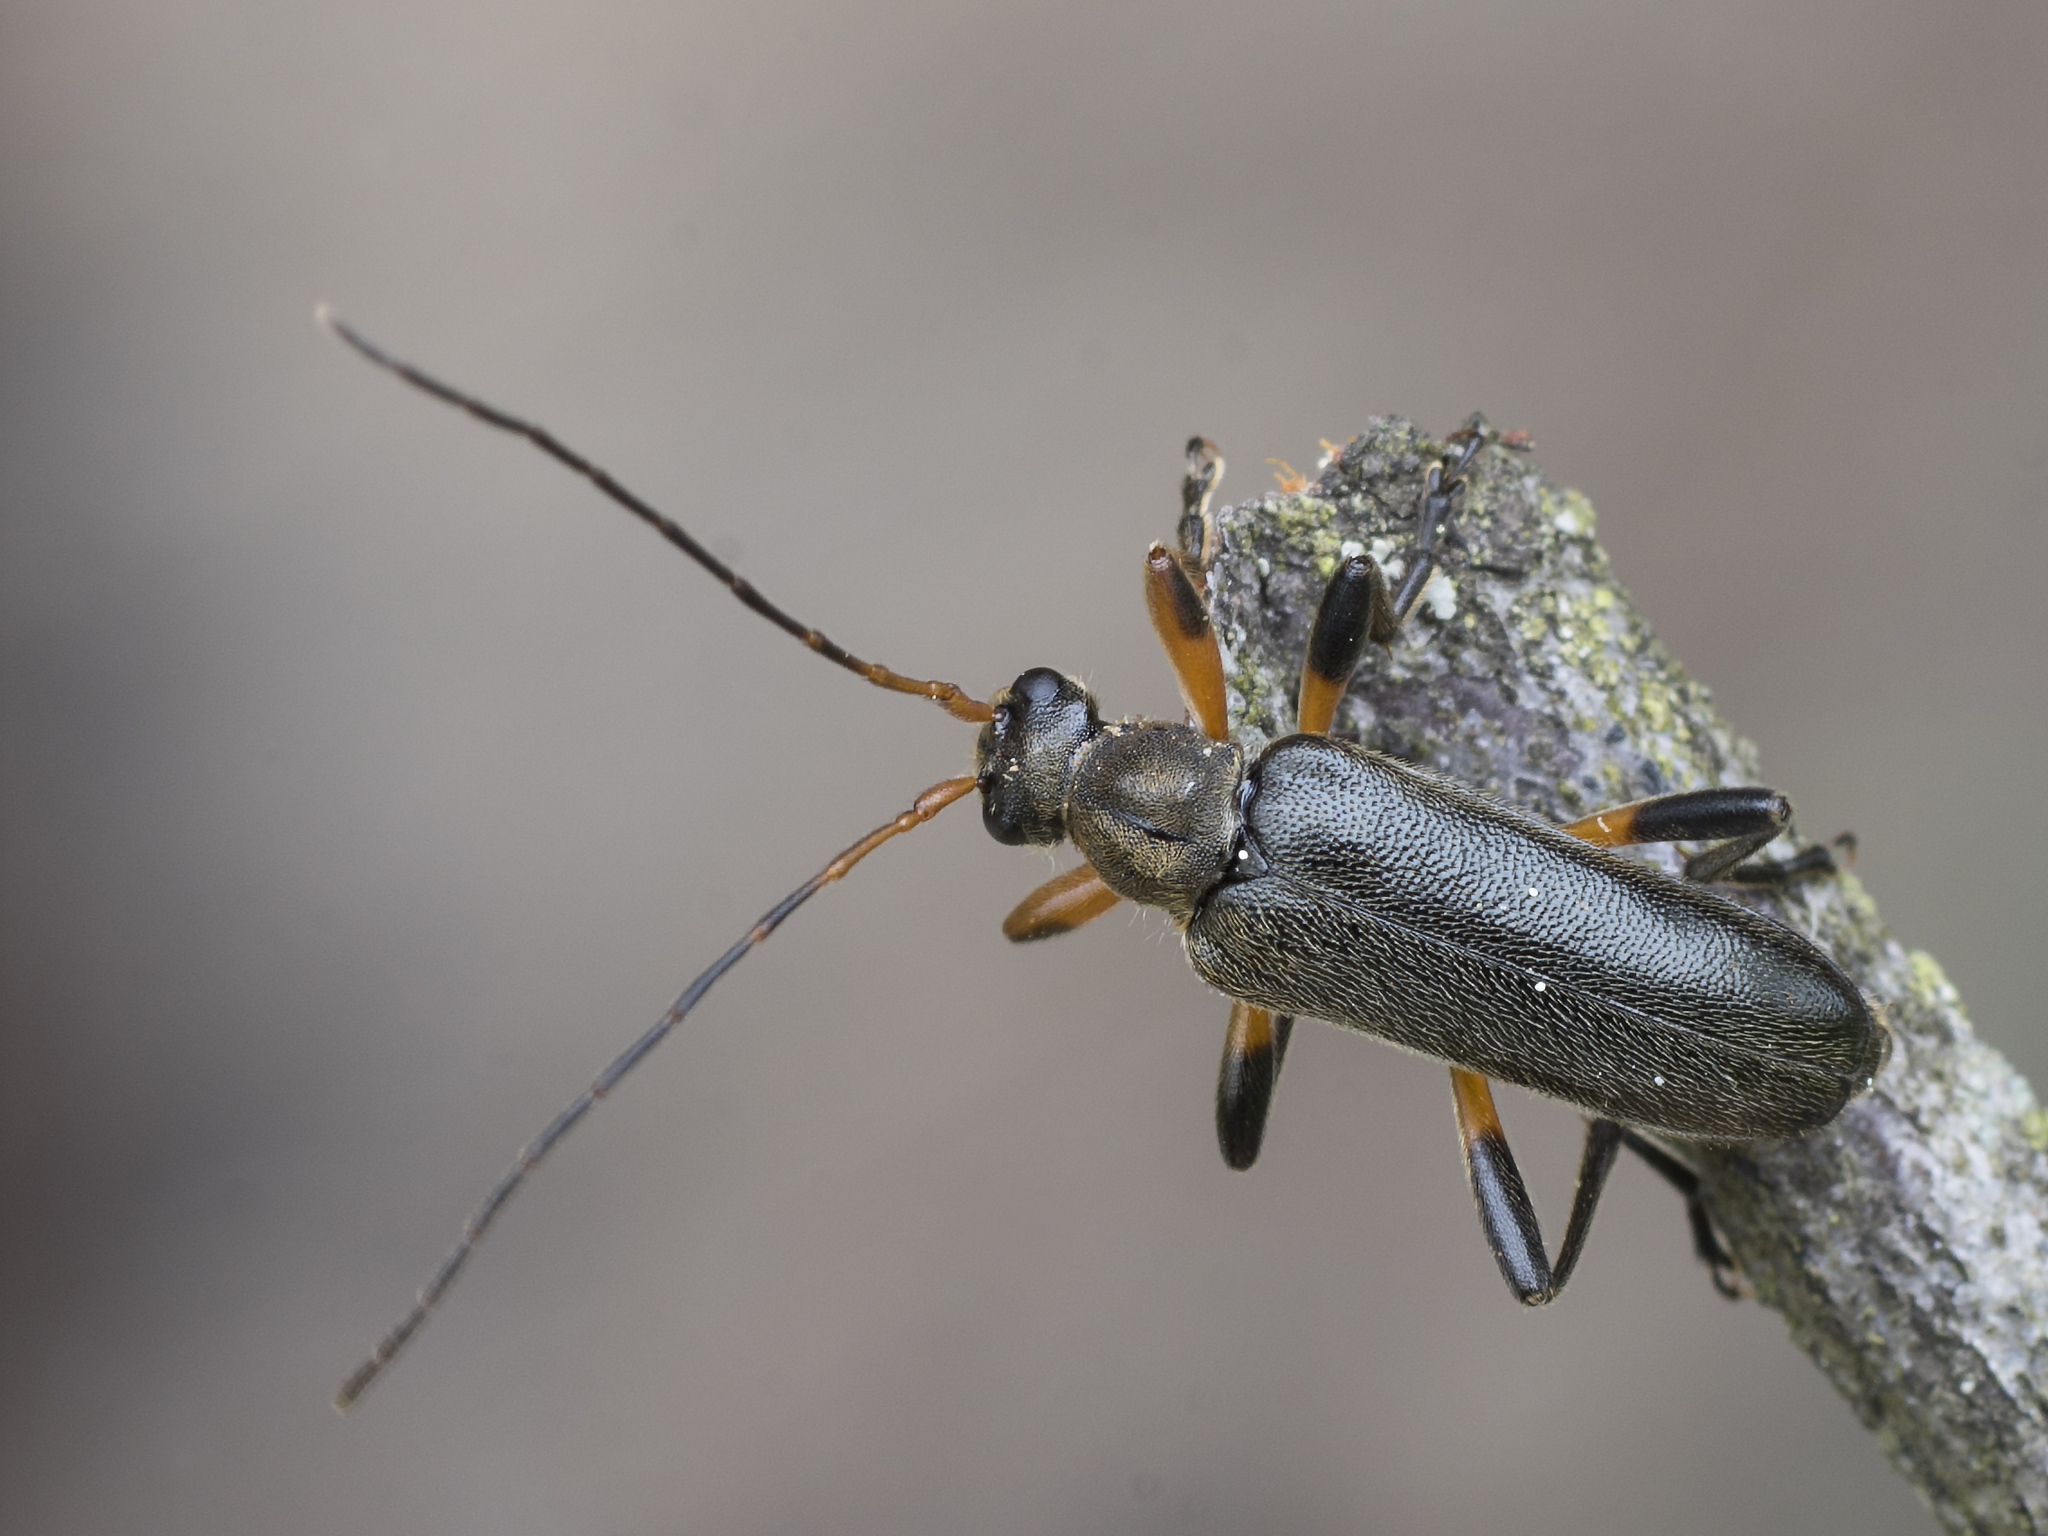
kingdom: Animalia
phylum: Arthropoda
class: Insecta
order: Coleoptera
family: Cerambycidae
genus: Cortodera
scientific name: Cortodera femorata
